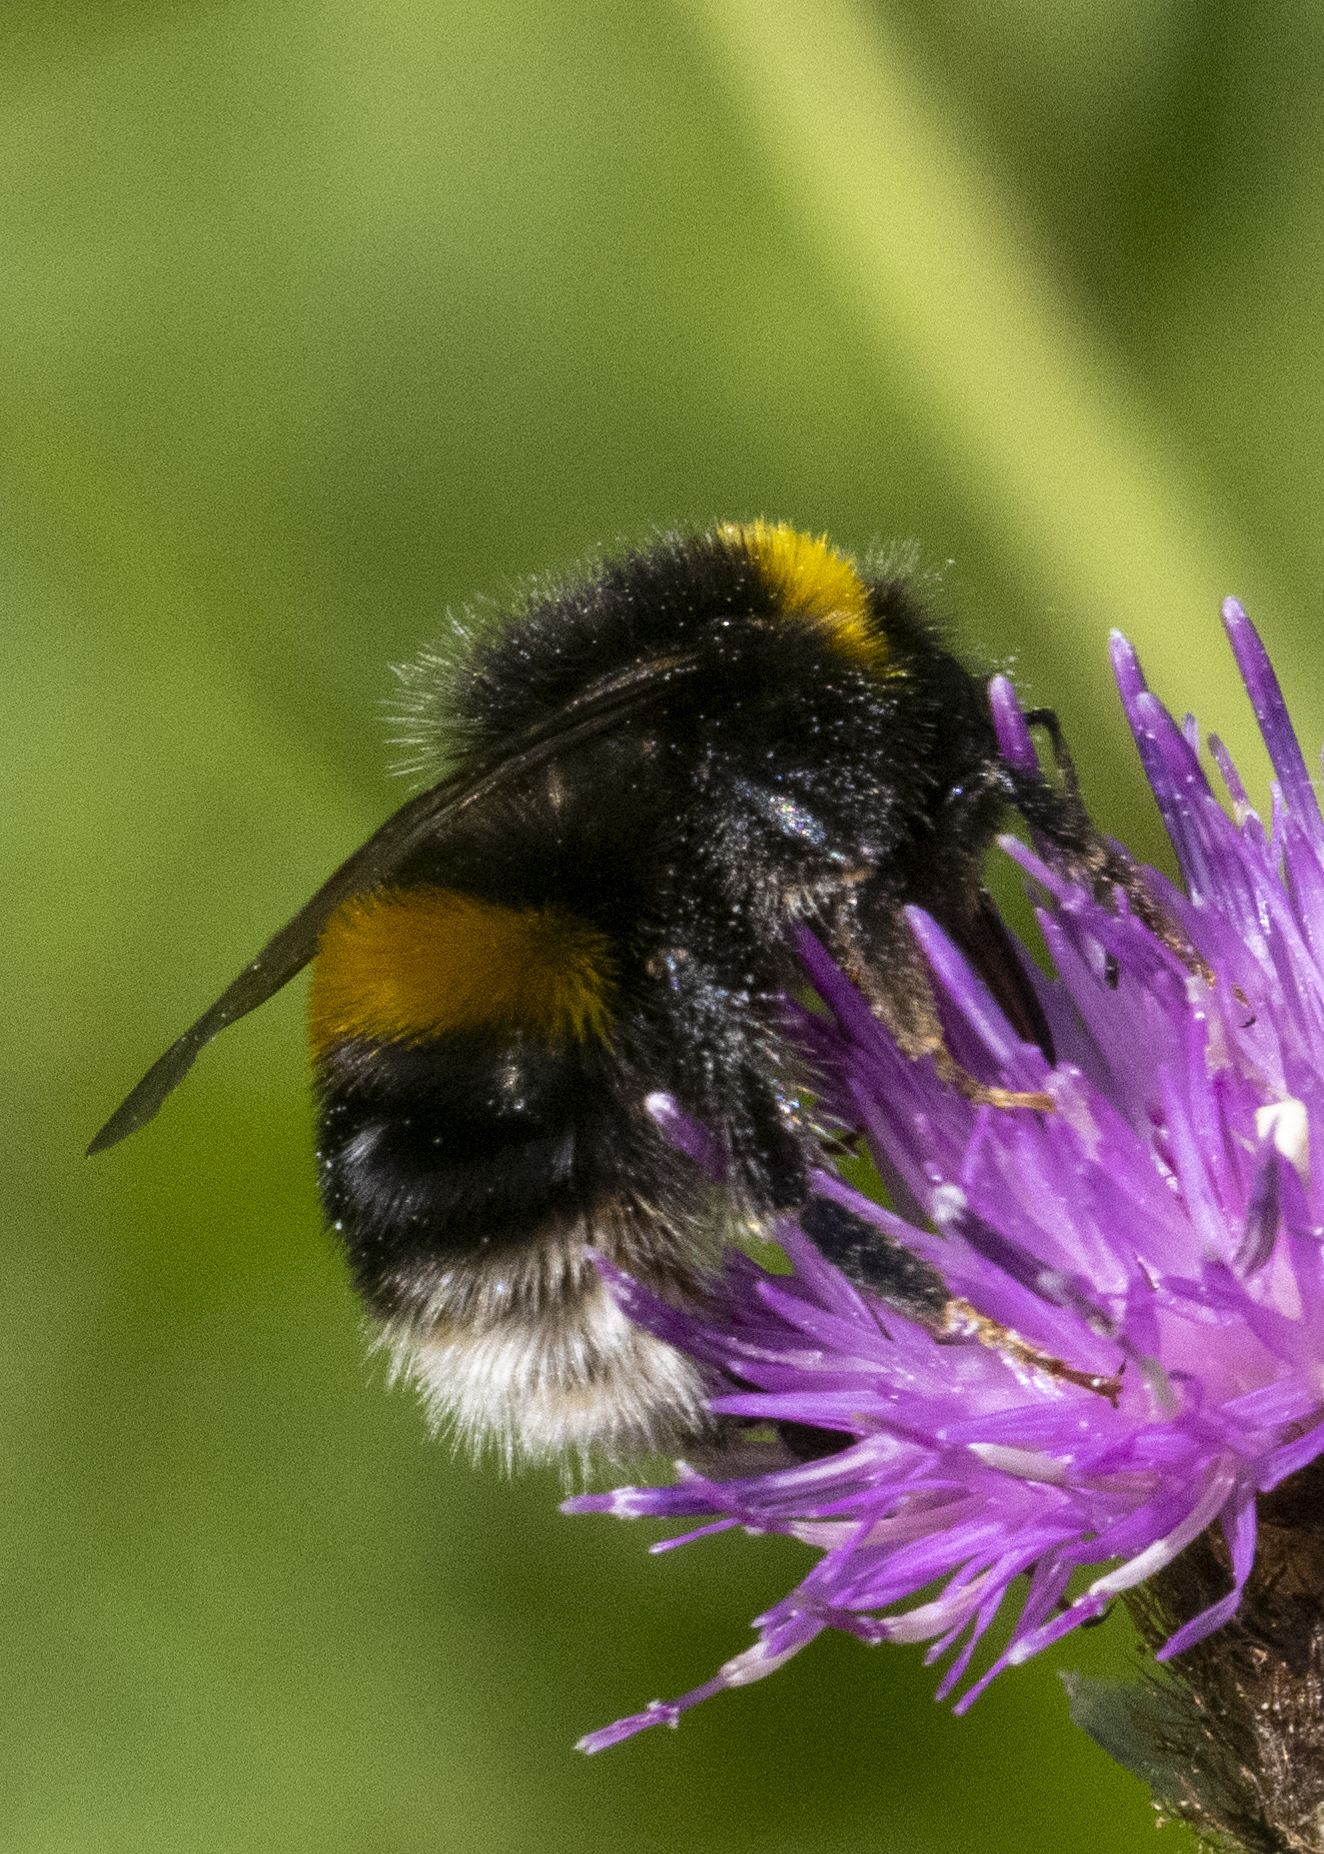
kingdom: Animalia
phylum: Arthropoda
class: Insecta
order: Hymenoptera
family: Apidae
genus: Bombus
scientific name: Bombus terrestris
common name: Buff-tailed bumblebee
